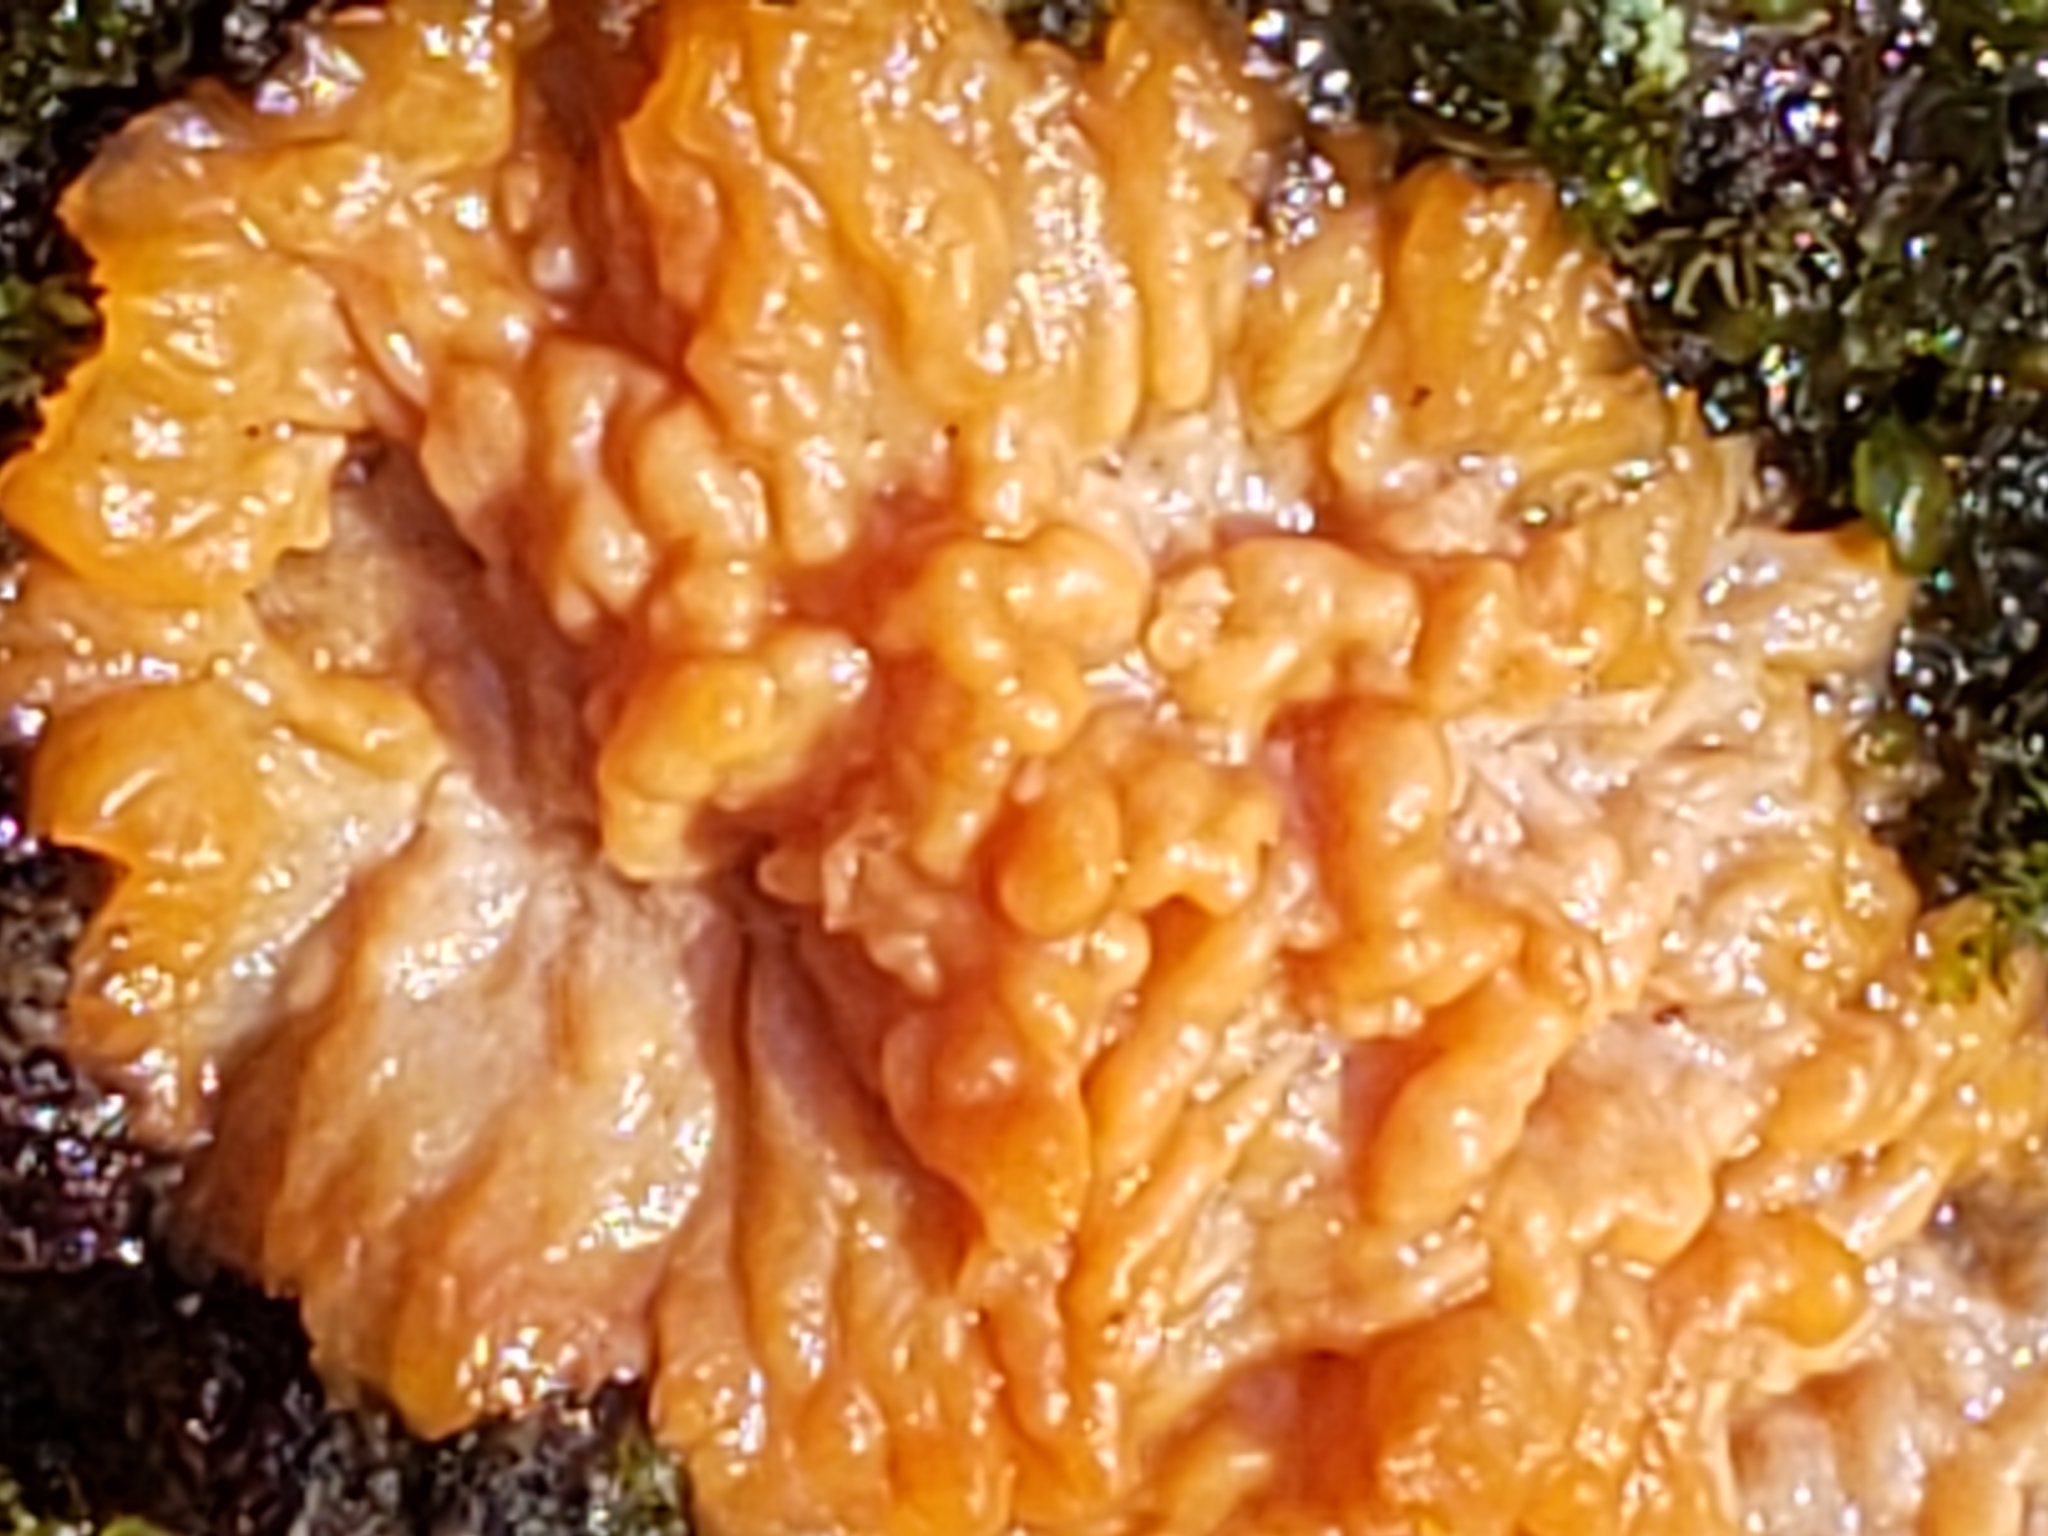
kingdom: Fungi
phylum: Basidiomycota
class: Agaricomycetes
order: Polyporales
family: Meruliaceae
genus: Phlebia
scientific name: Phlebia radiata
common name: Wrinkled crust
